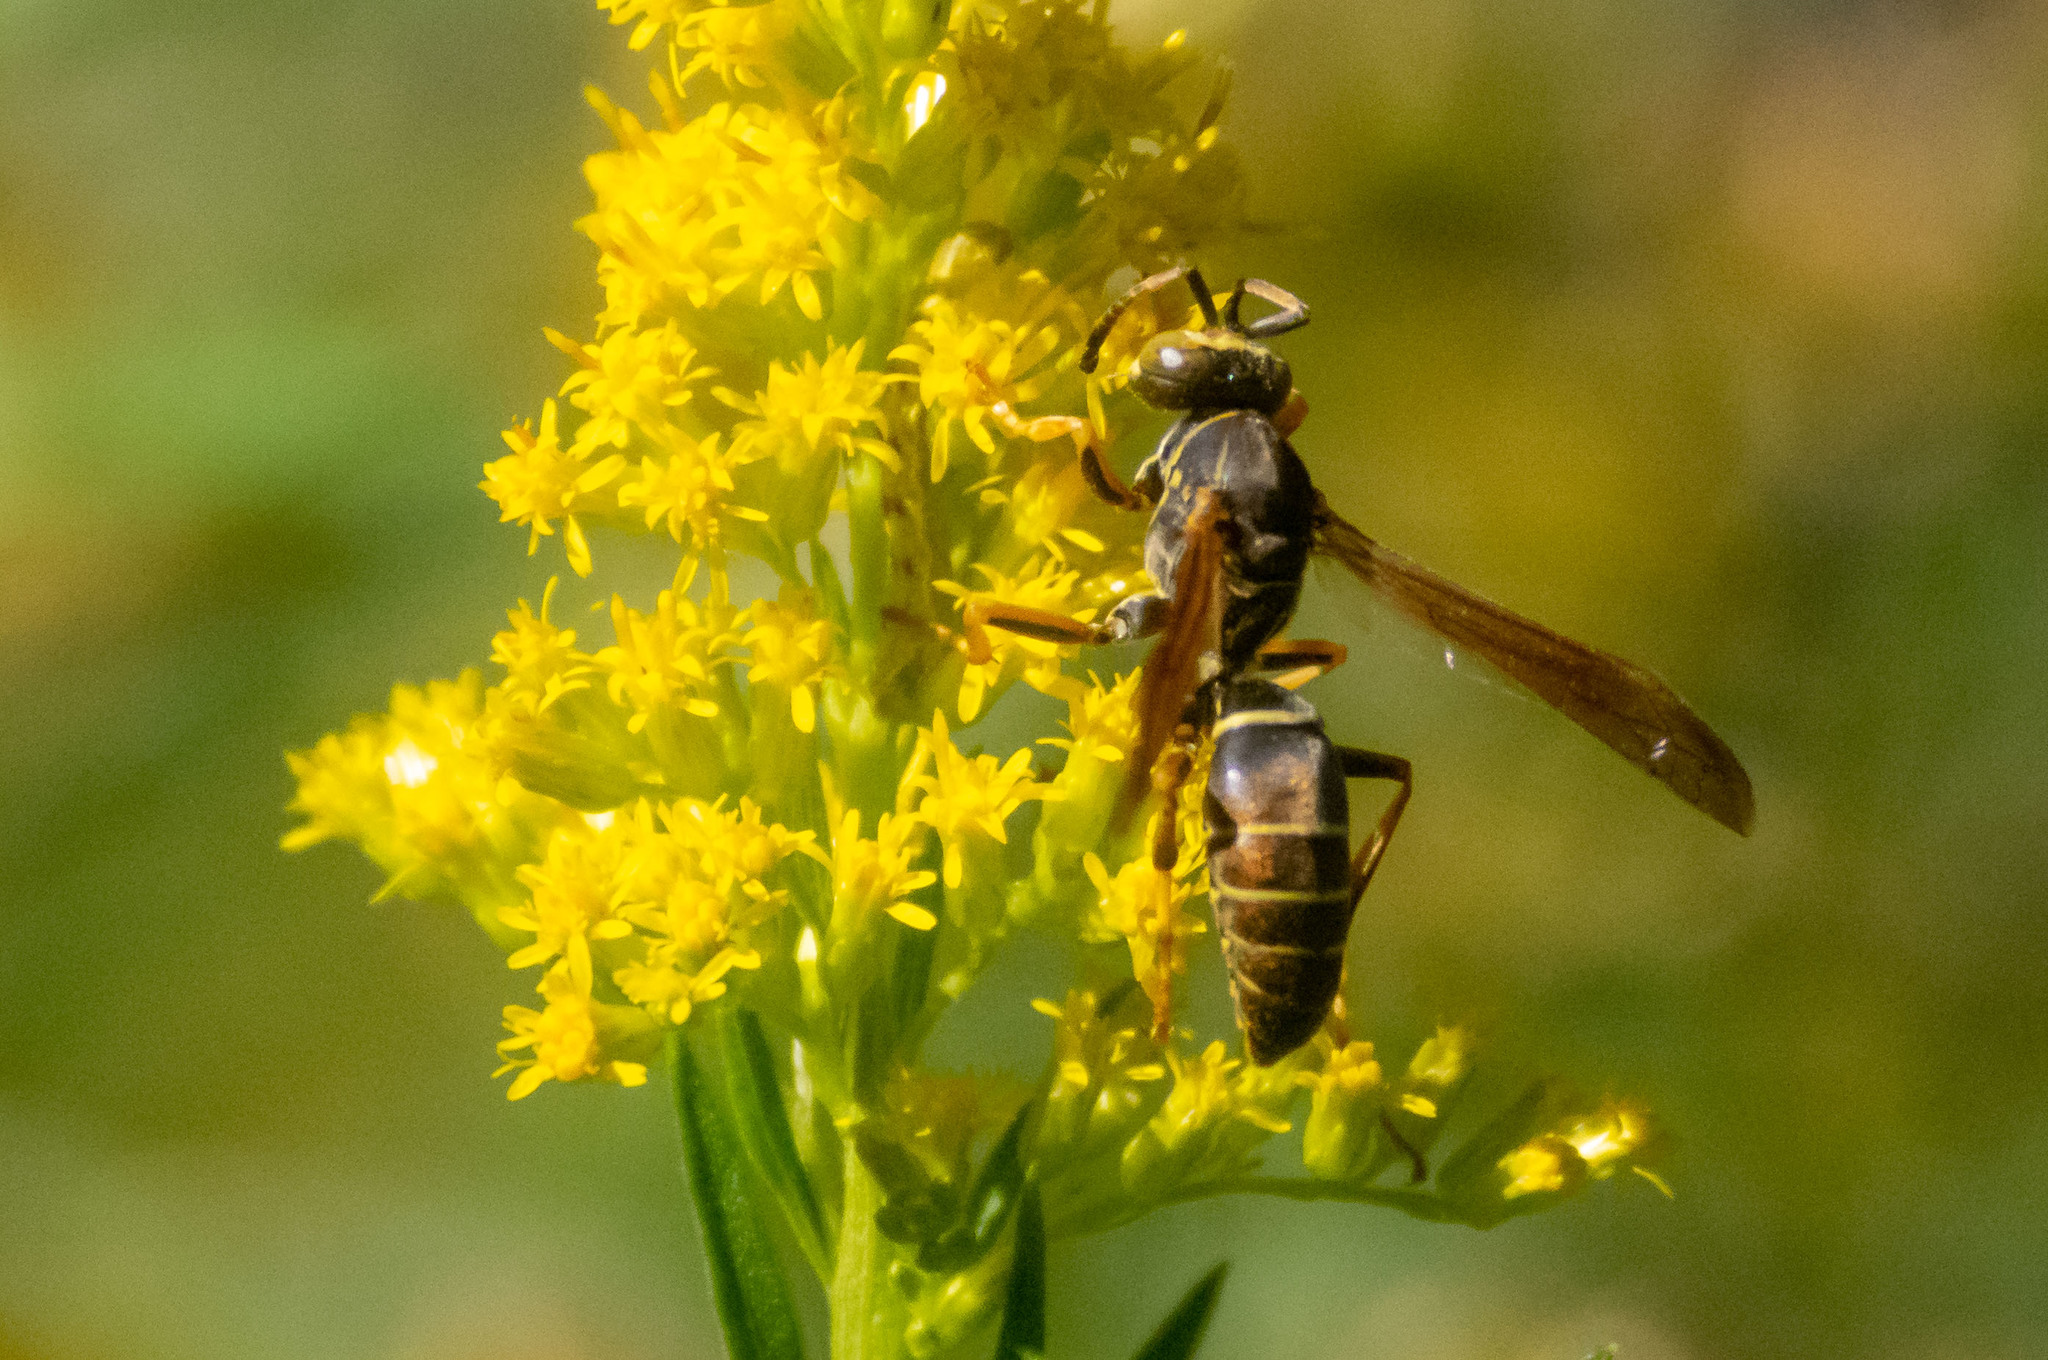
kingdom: Animalia
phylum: Arthropoda
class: Insecta
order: Hymenoptera
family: Eumenidae
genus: Polistes
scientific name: Polistes fuscatus
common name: Dark paper wasp
